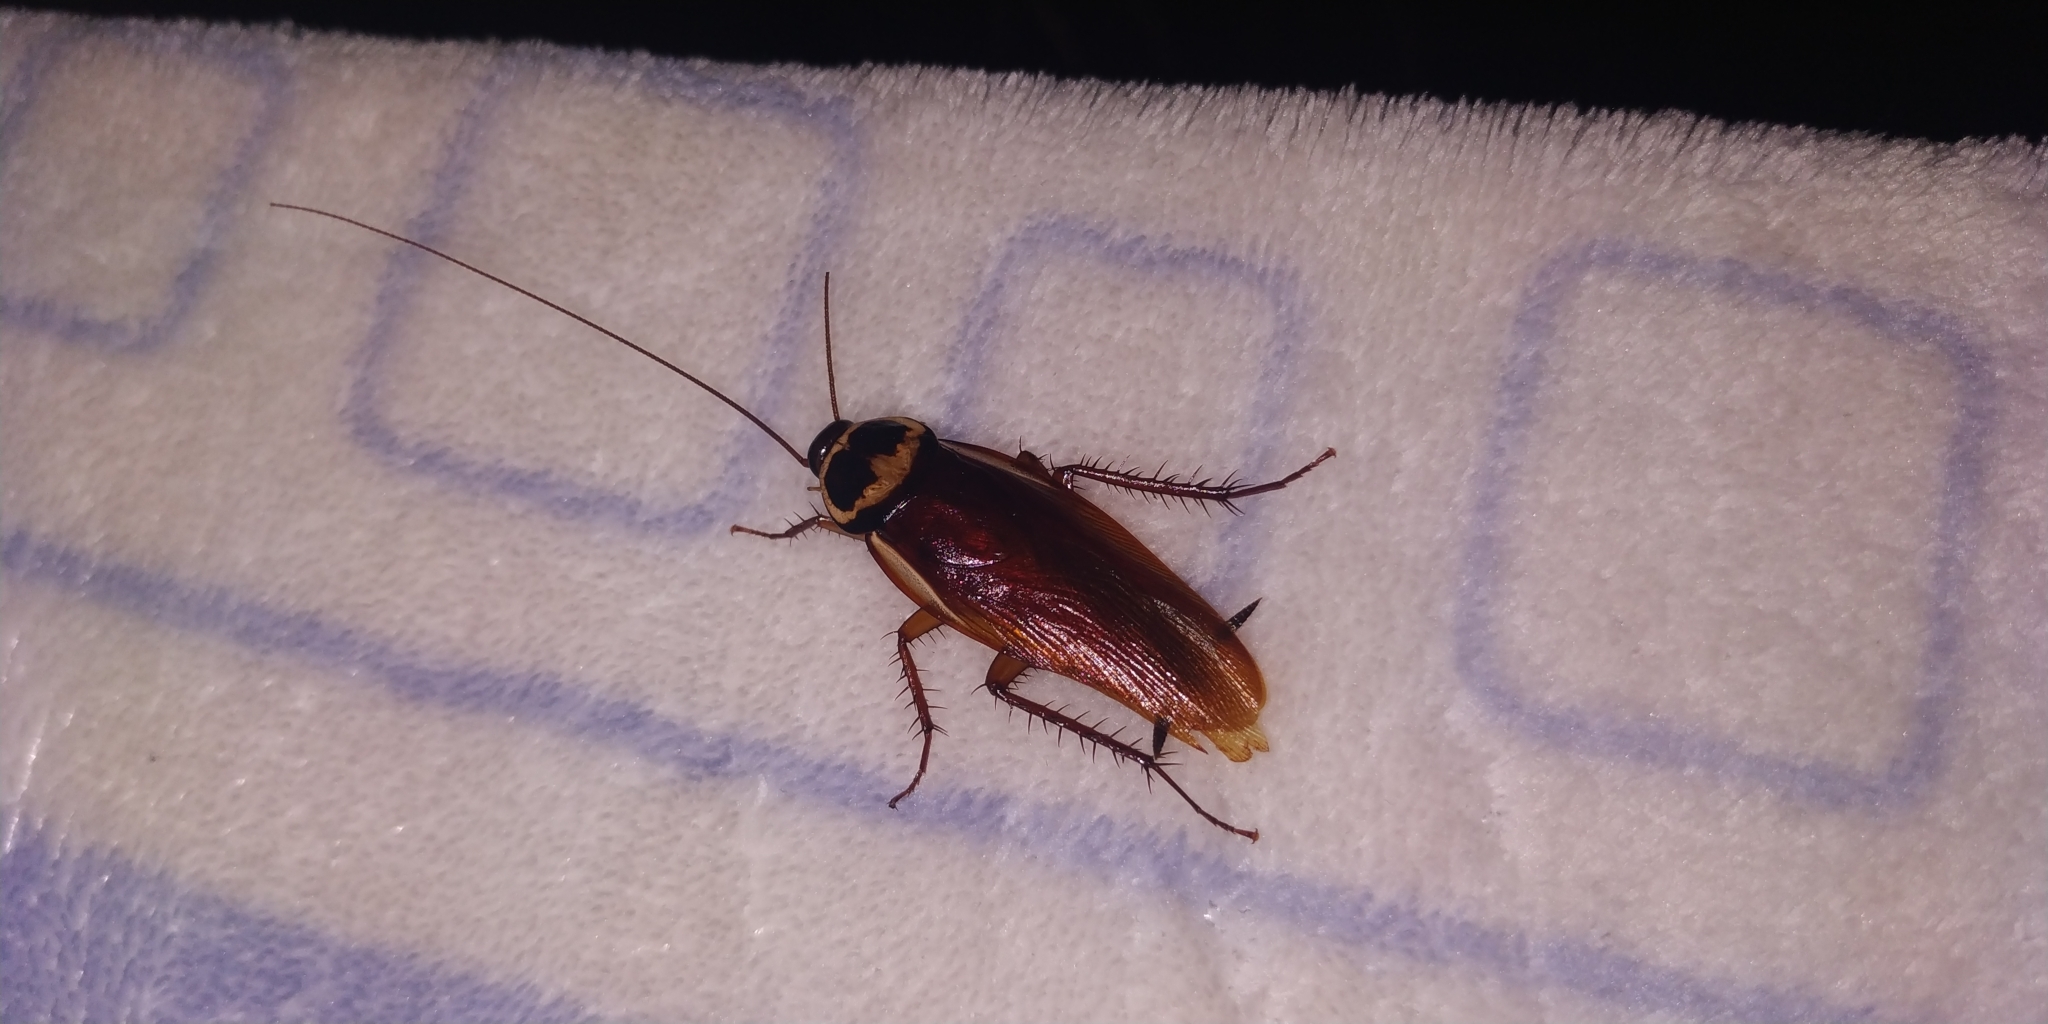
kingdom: Animalia
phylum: Arthropoda
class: Insecta
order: Blattodea
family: Blattidae
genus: Periplaneta
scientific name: Periplaneta australasiae
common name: Australian cockroach
